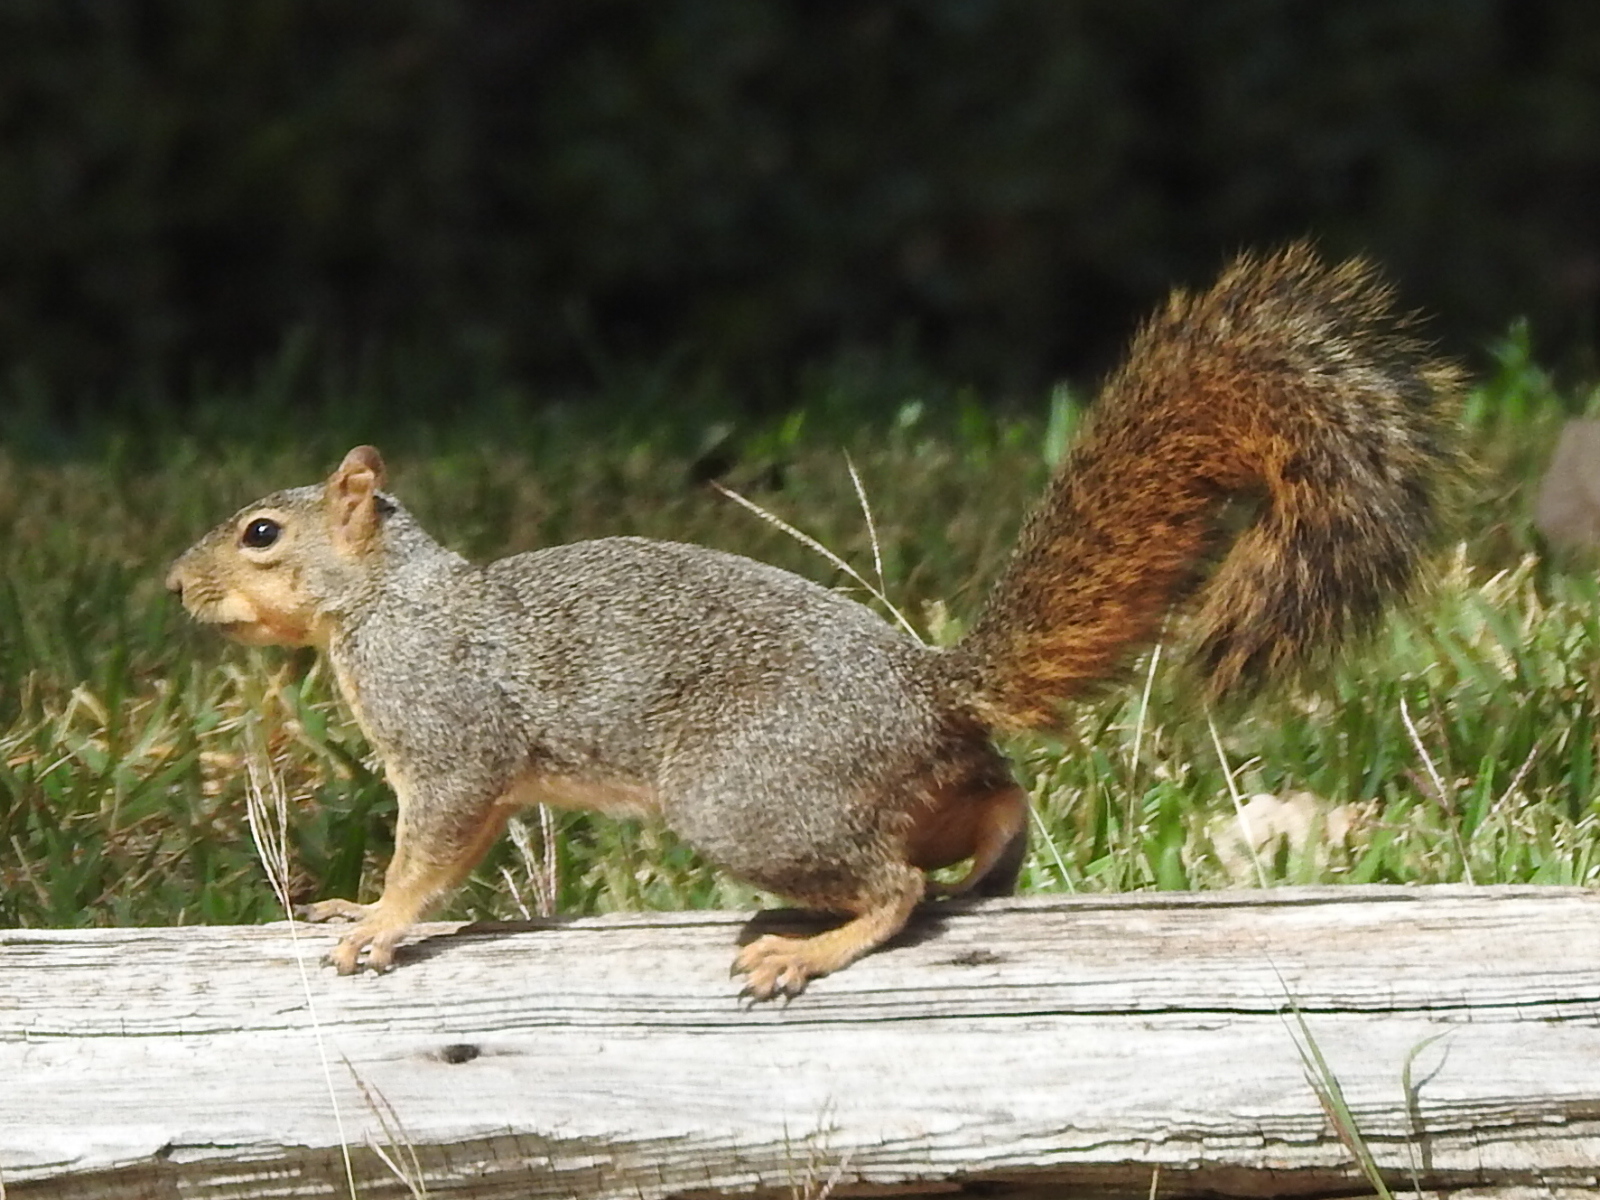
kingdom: Animalia
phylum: Chordata
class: Mammalia
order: Rodentia
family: Sciuridae
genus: Sciurus
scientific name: Sciurus niger
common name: Fox squirrel
